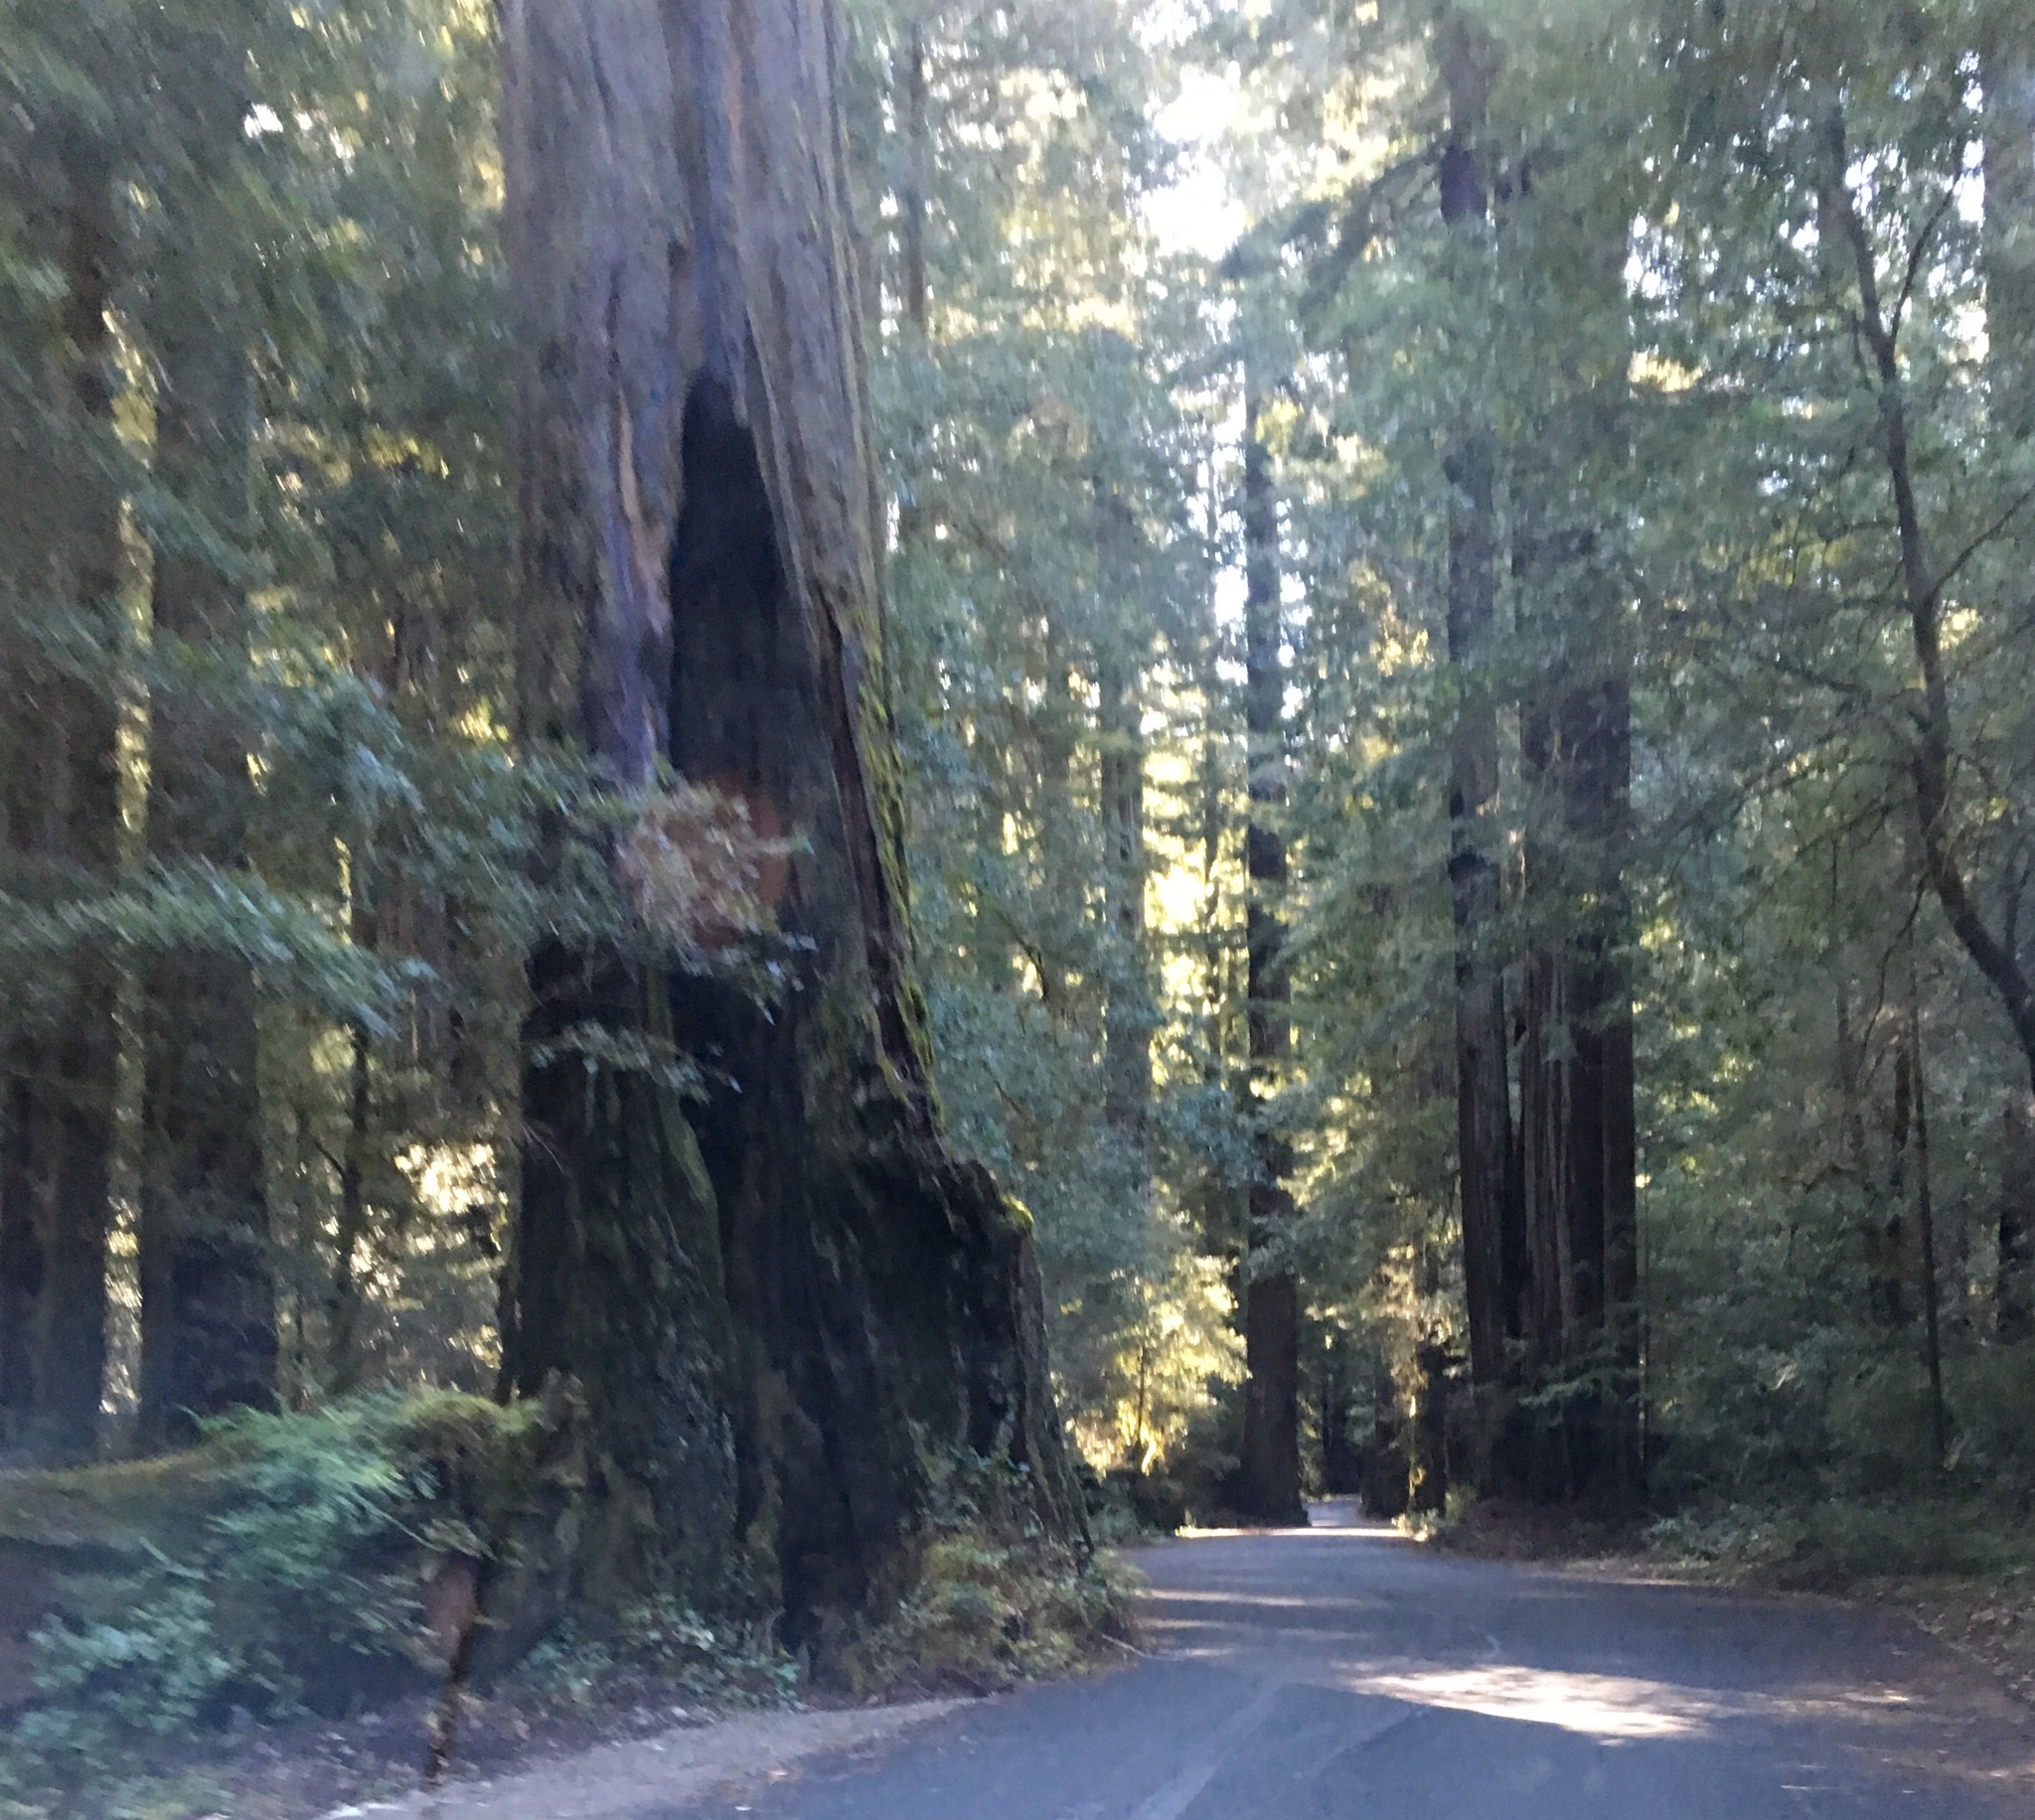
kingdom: Plantae
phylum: Tracheophyta
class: Pinopsida
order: Pinales
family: Cupressaceae
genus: Sequoia
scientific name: Sequoia sempervirens
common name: Coast redwood
